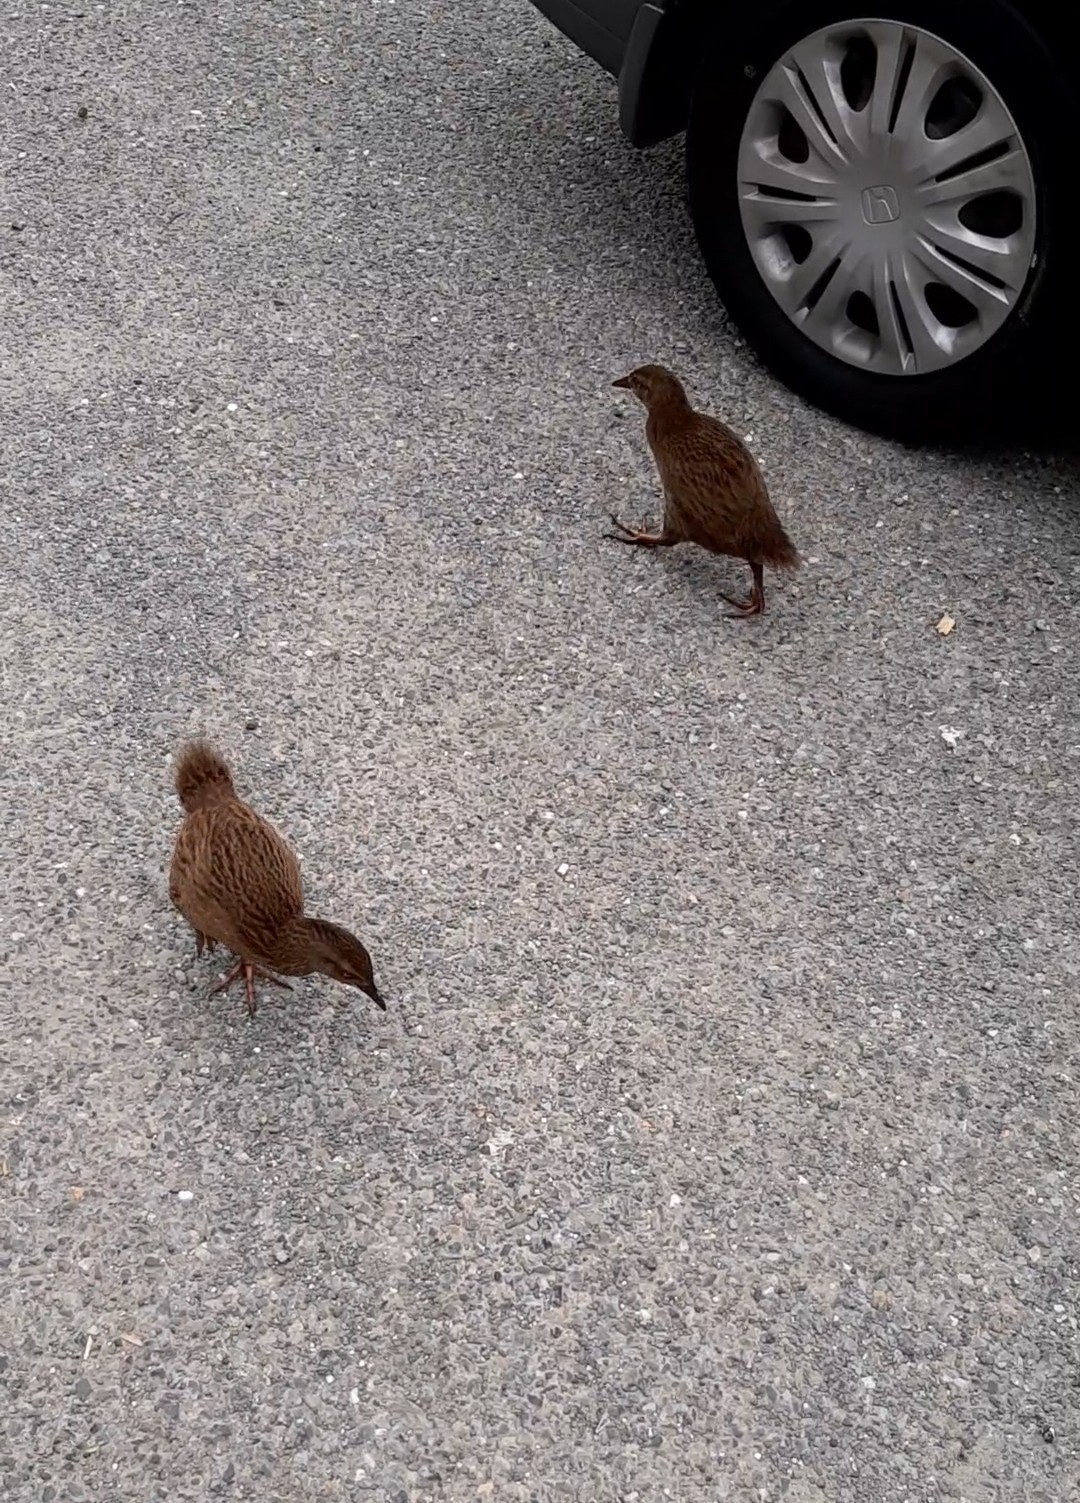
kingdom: Animalia
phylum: Chordata
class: Aves
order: Gruiformes
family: Rallidae
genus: Gallirallus
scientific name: Gallirallus australis
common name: Weka
